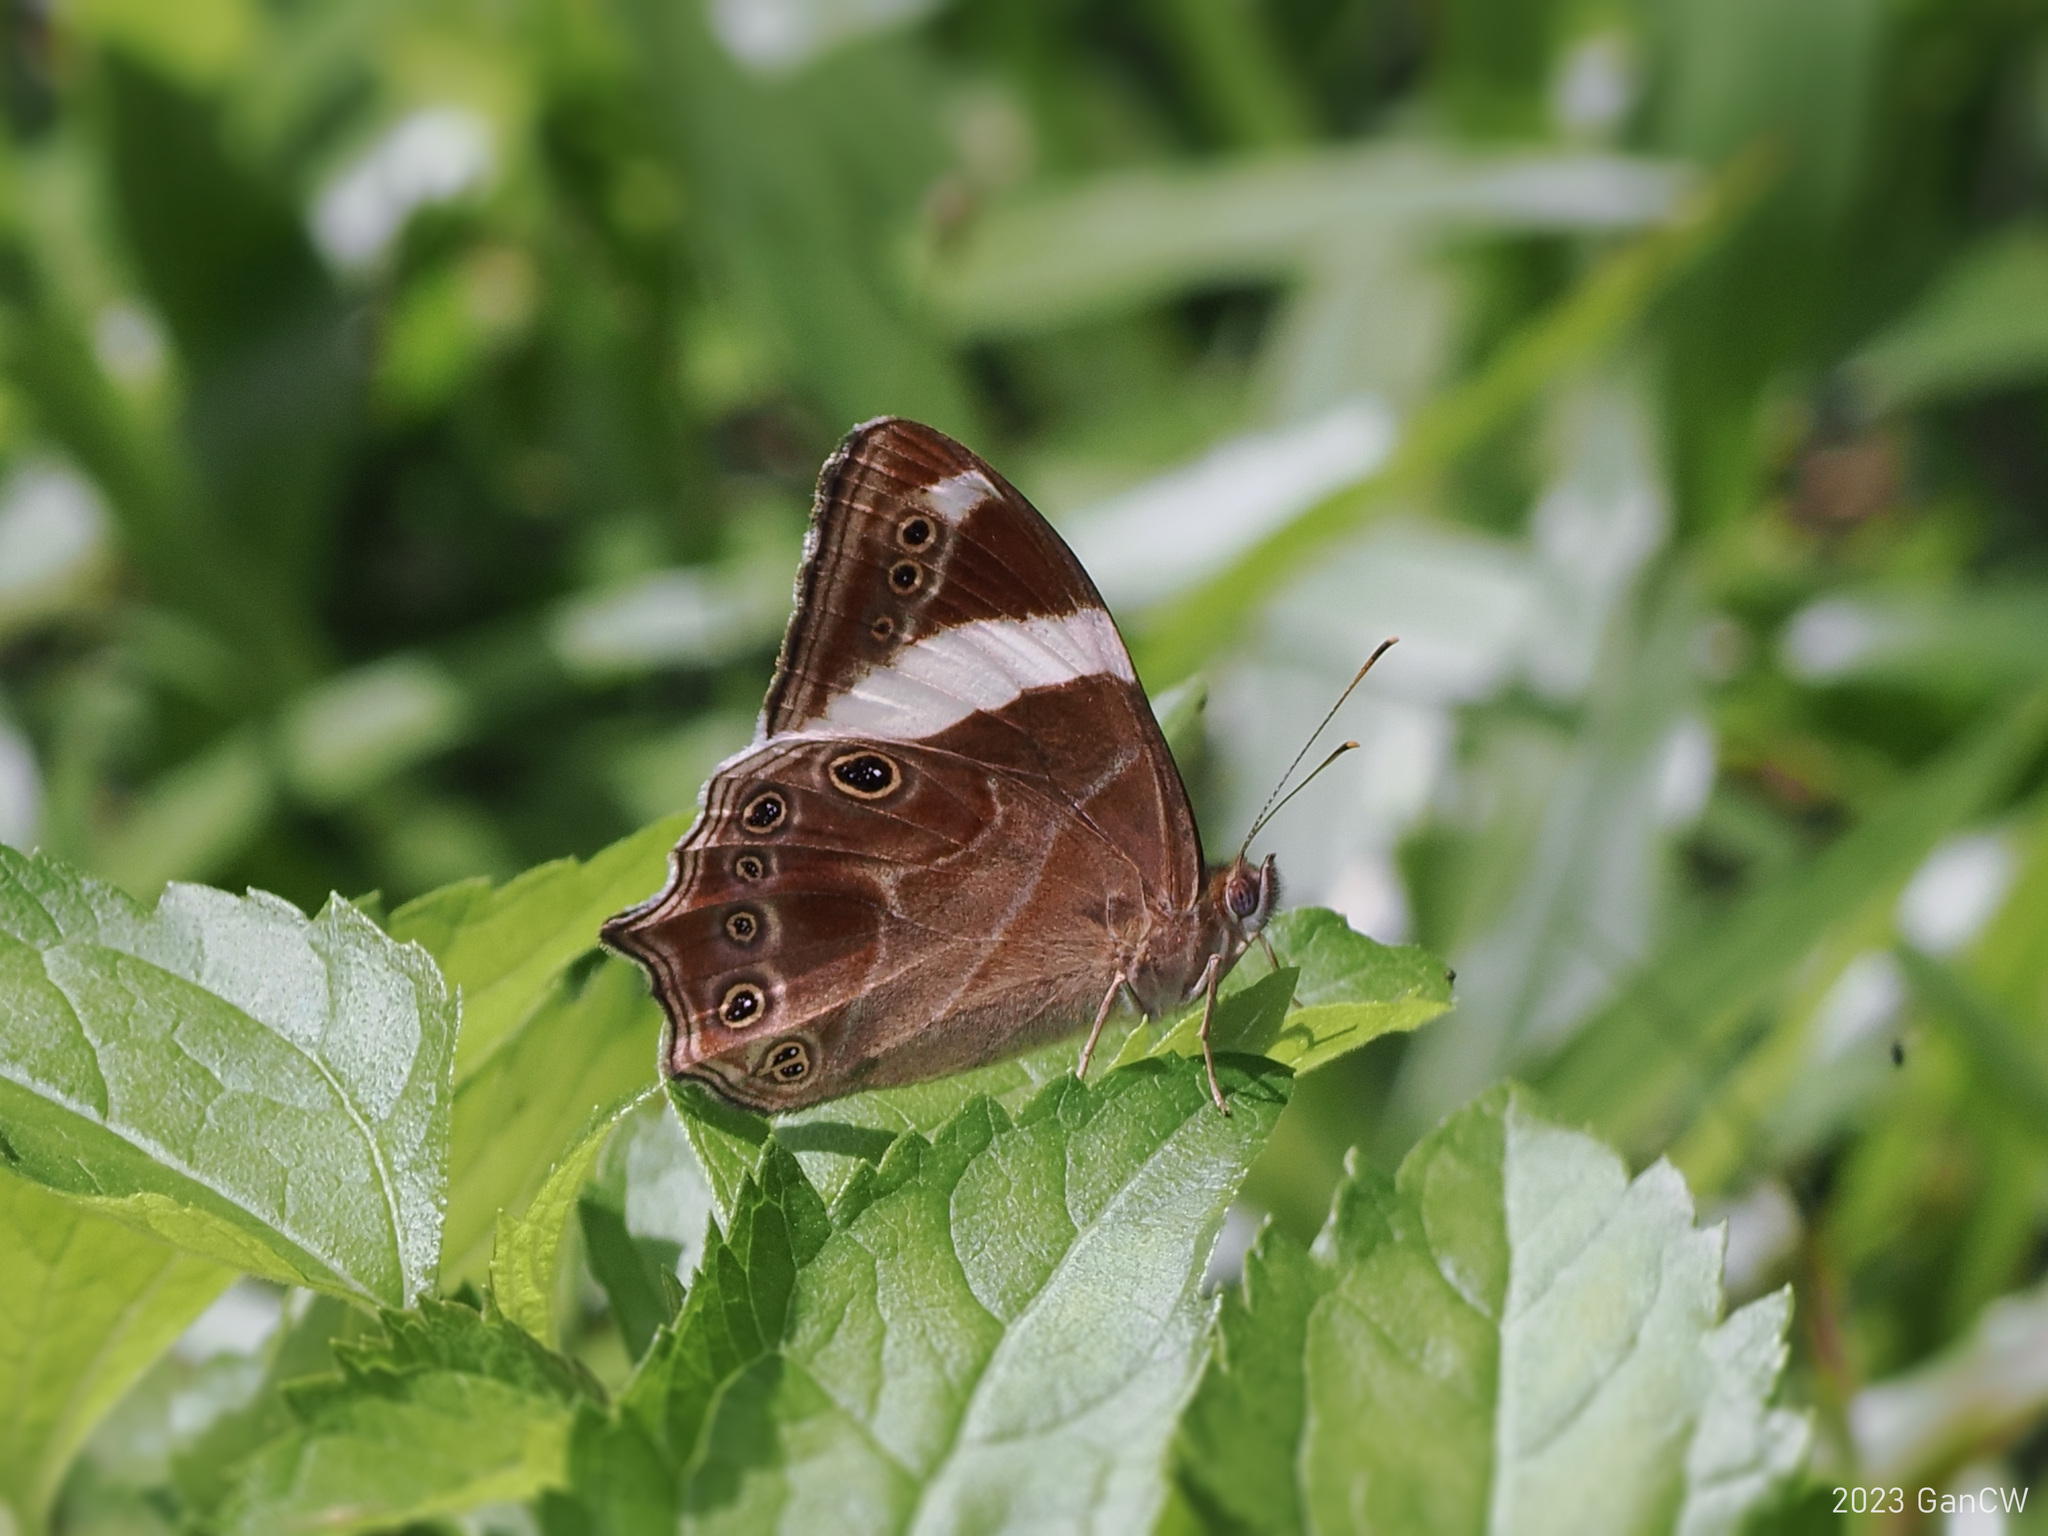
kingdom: Animalia
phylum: Arthropoda
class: Insecta
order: Lepidoptera
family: Nymphalidae
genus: Lethe
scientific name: Lethe confusa
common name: Banded treebrown
